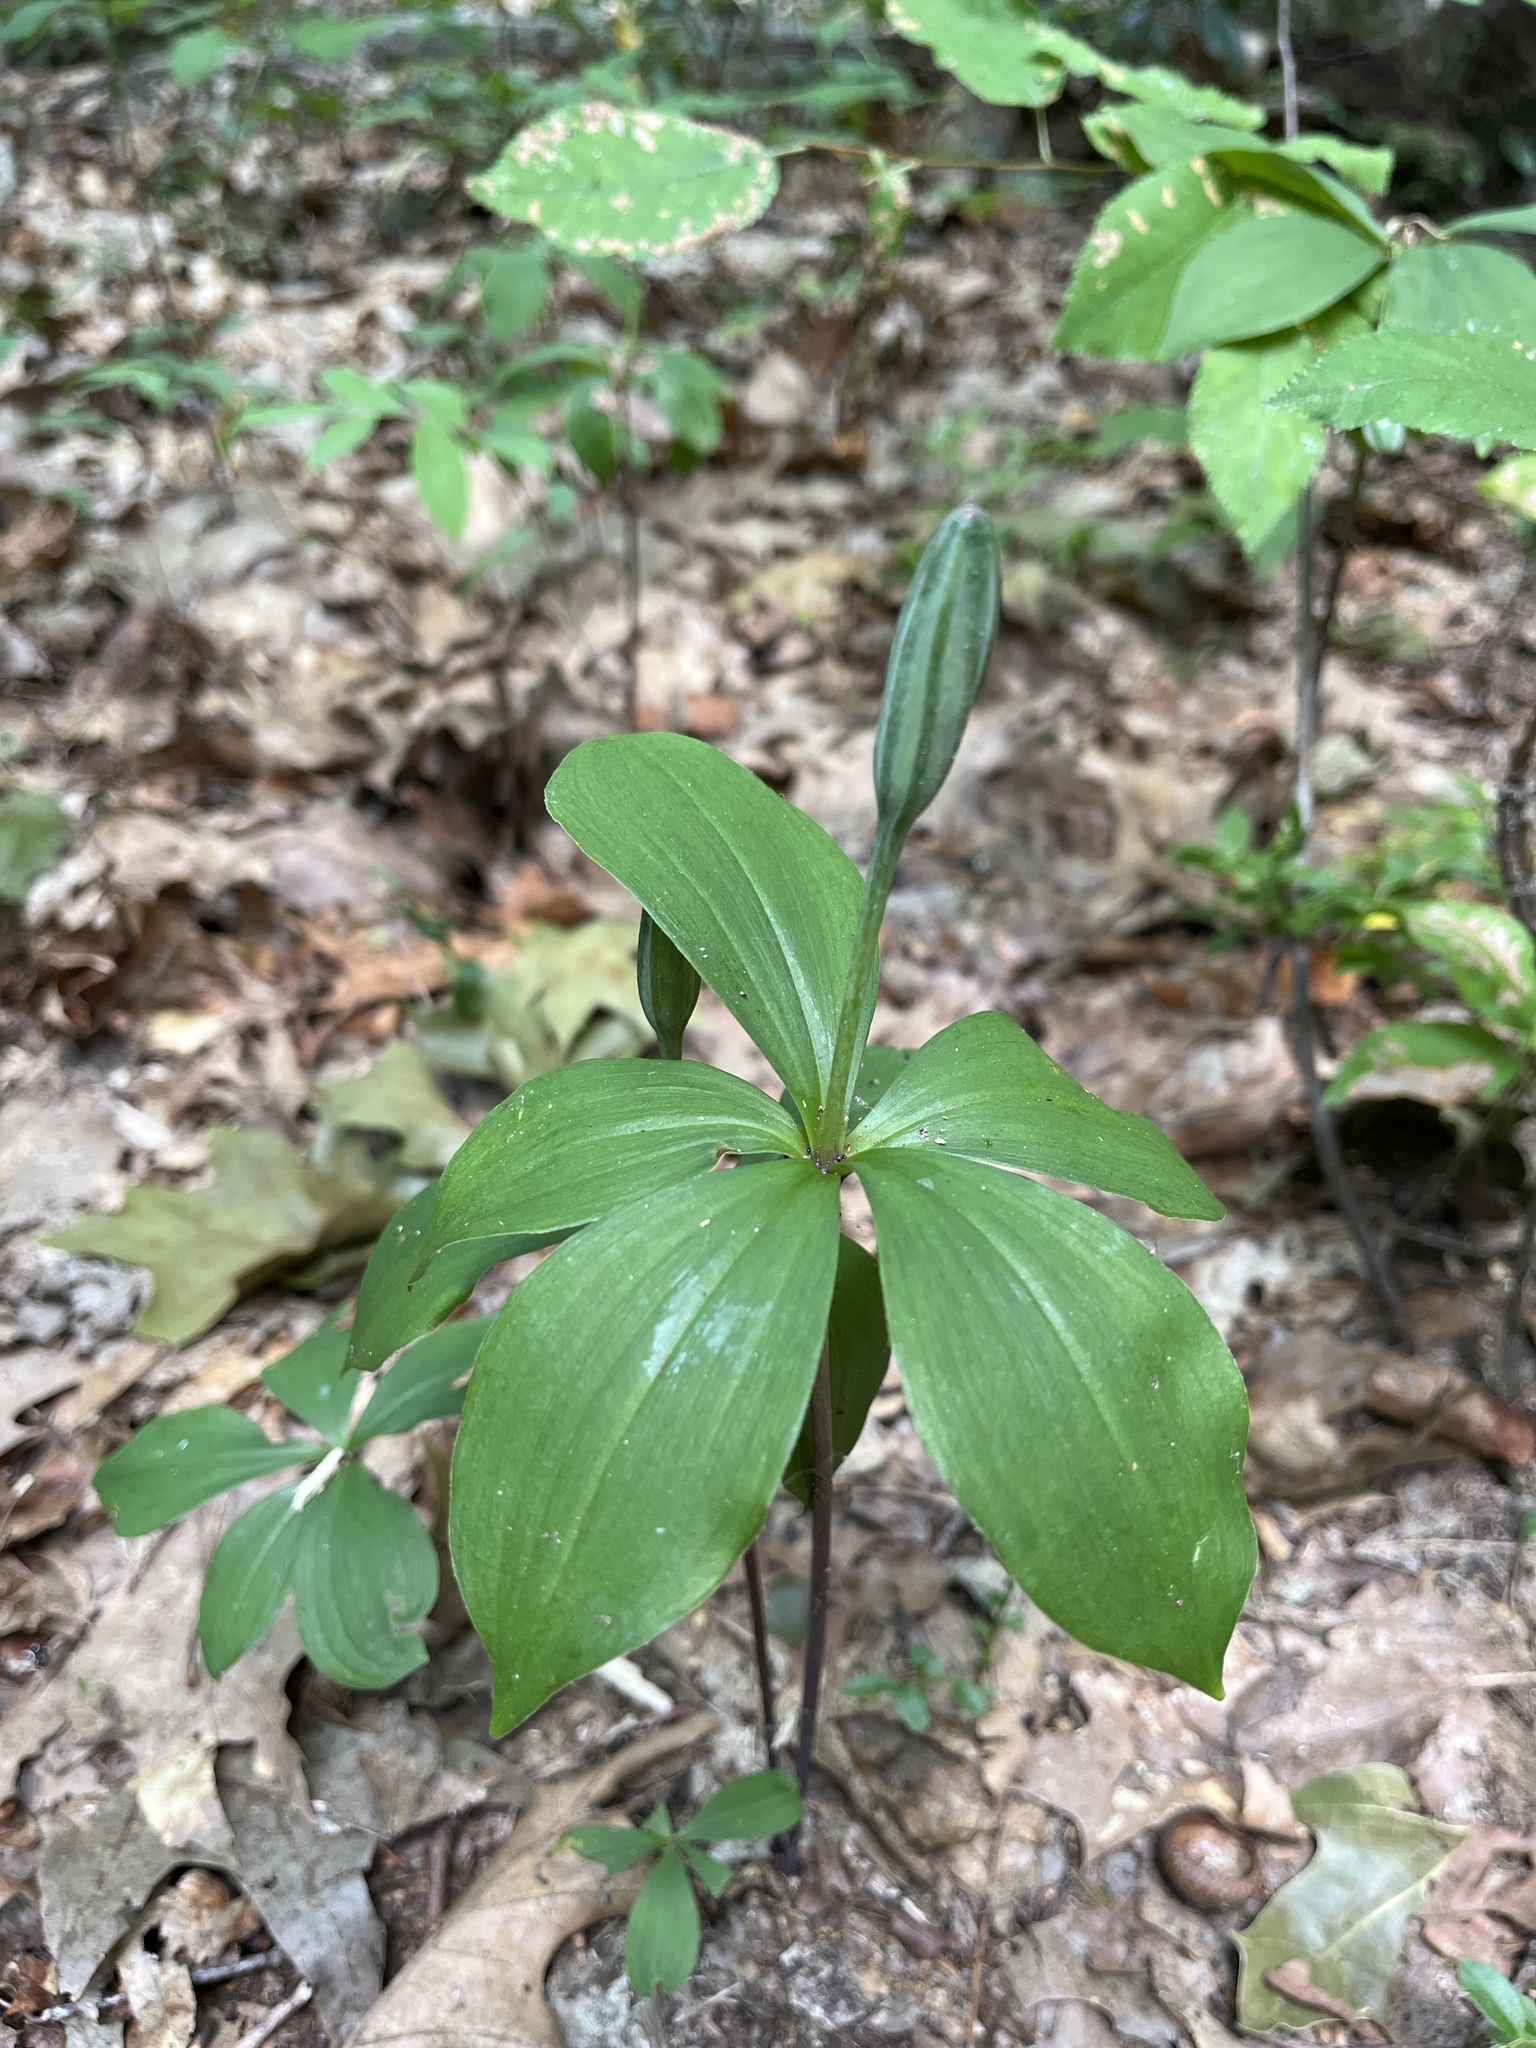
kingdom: Plantae
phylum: Tracheophyta
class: Liliopsida
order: Asparagales
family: Orchidaceae
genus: Isotria
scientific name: Isotria verticillata
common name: Large whorled pogonia
